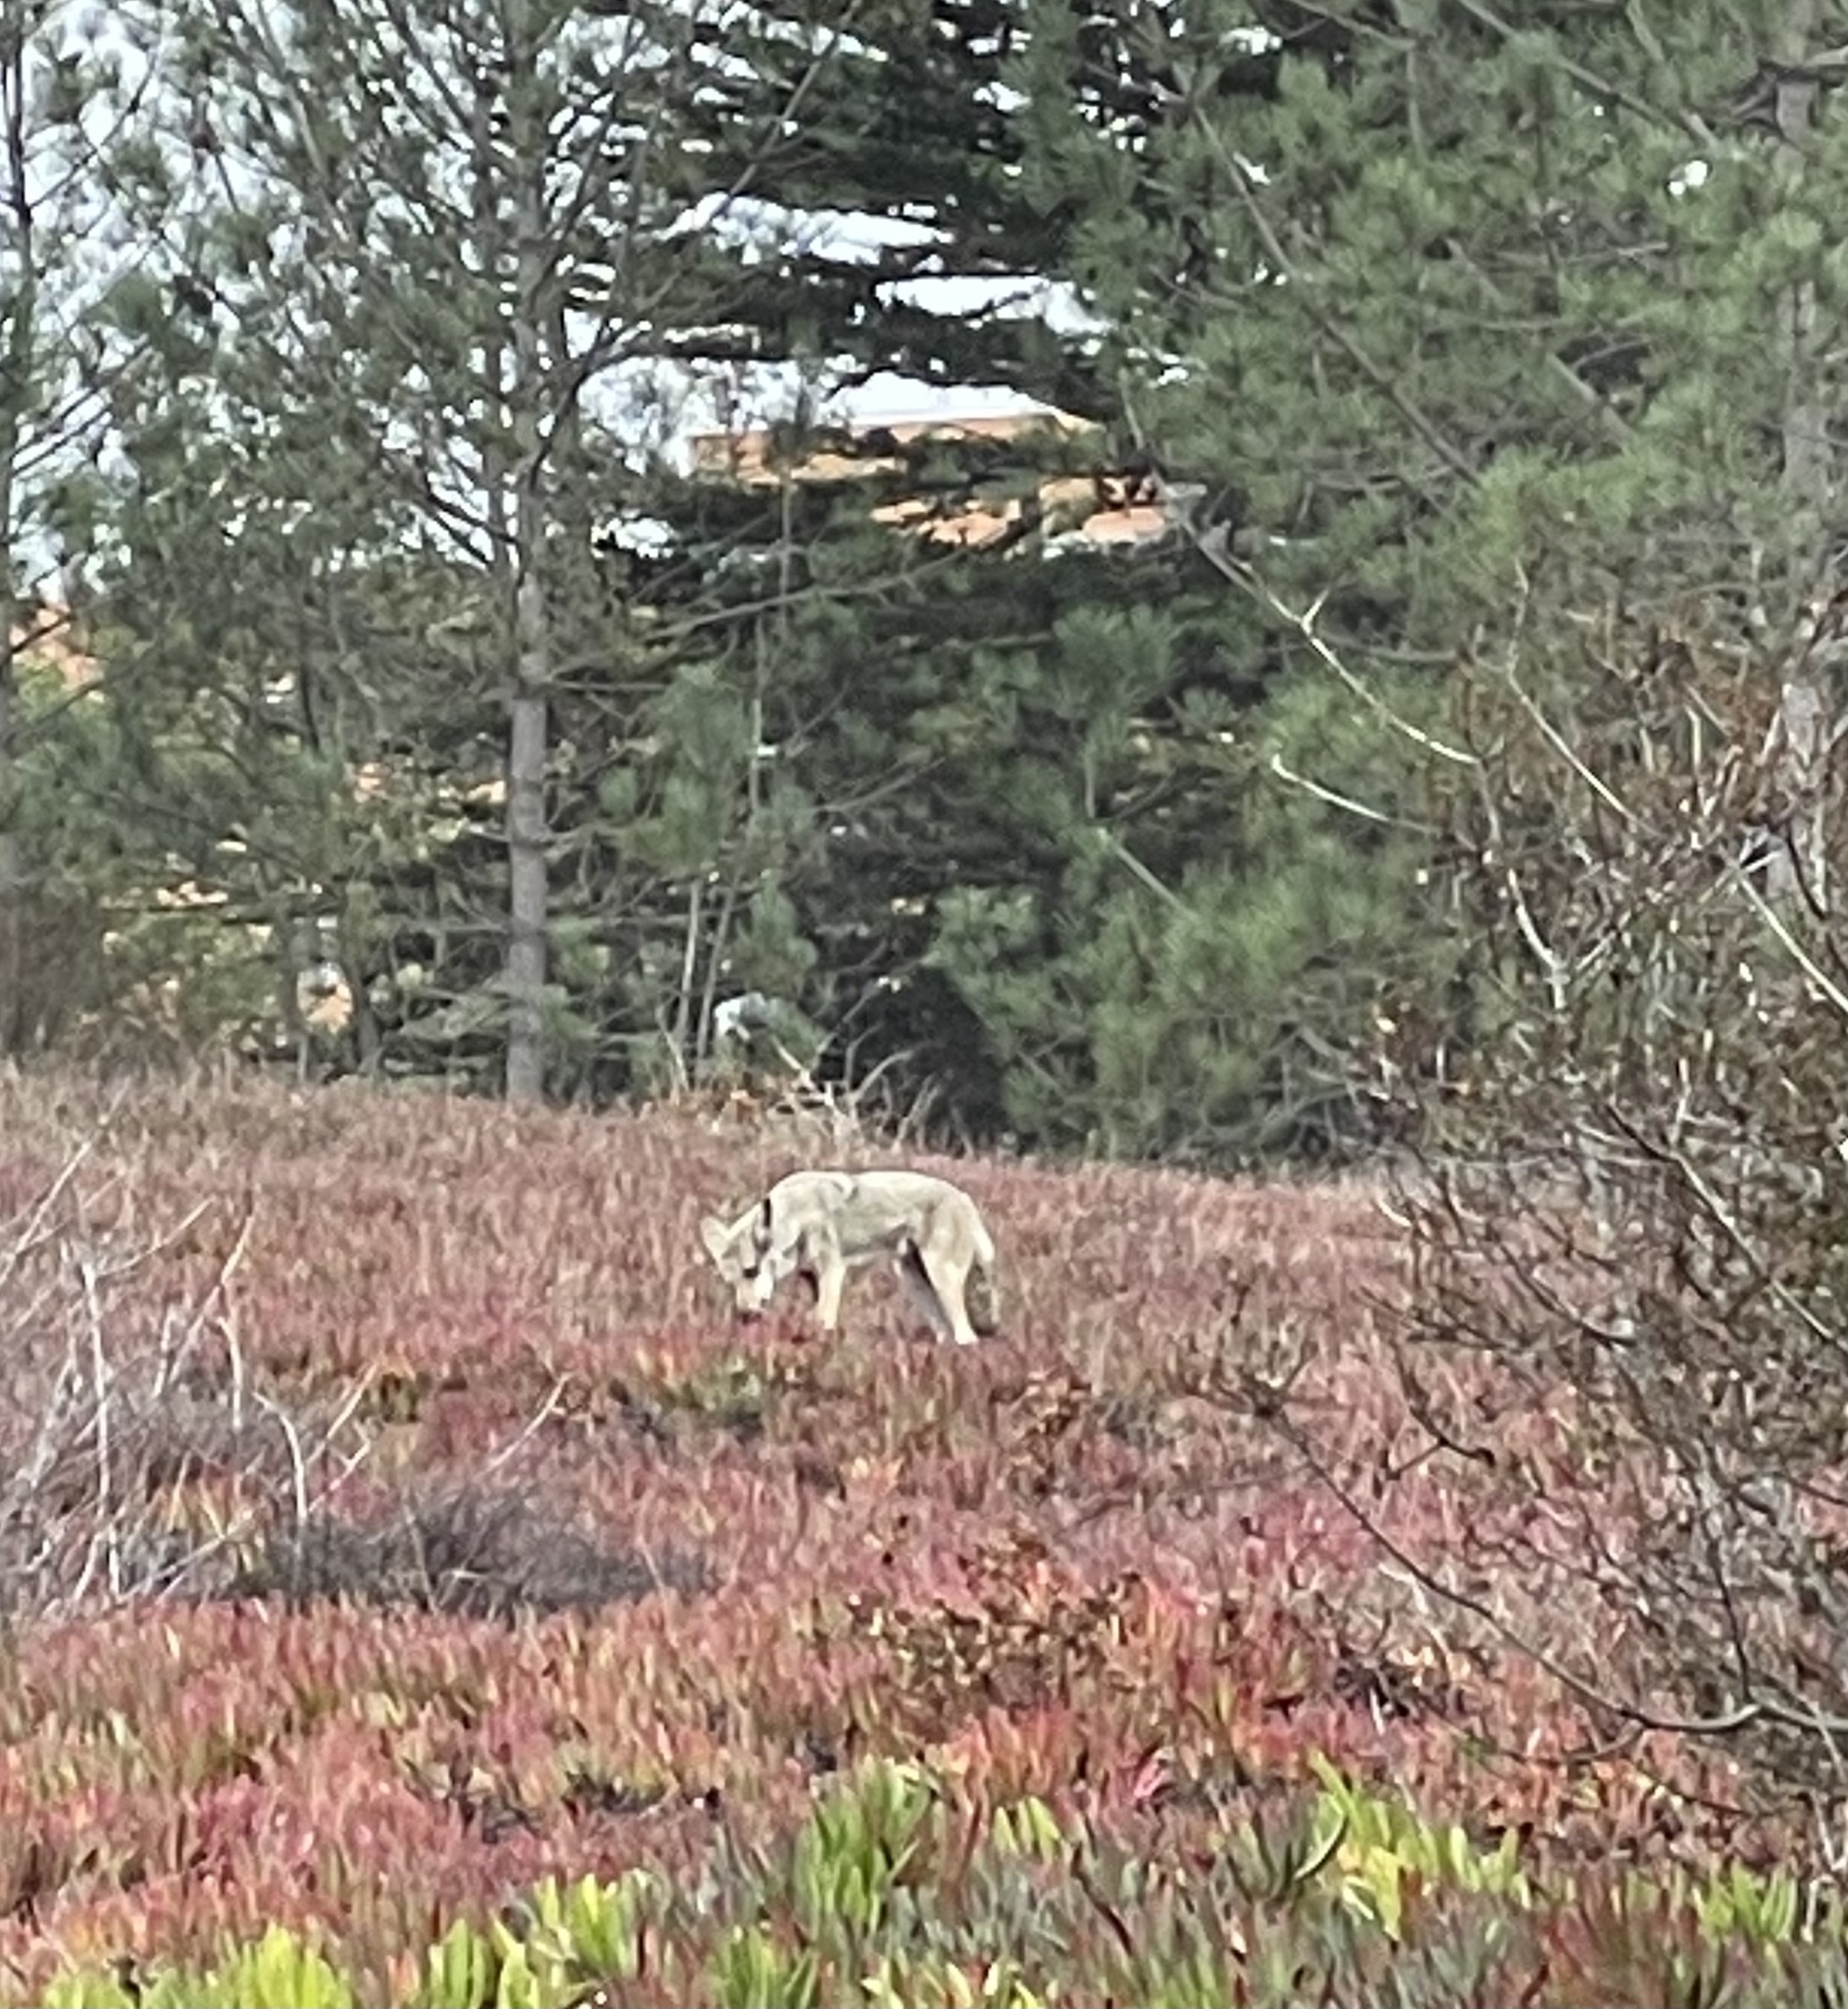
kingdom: Animalia
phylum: Chordata
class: Mammalia
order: Carnivora
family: Canidae
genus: Canis
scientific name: Canis latrans
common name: Coyote
